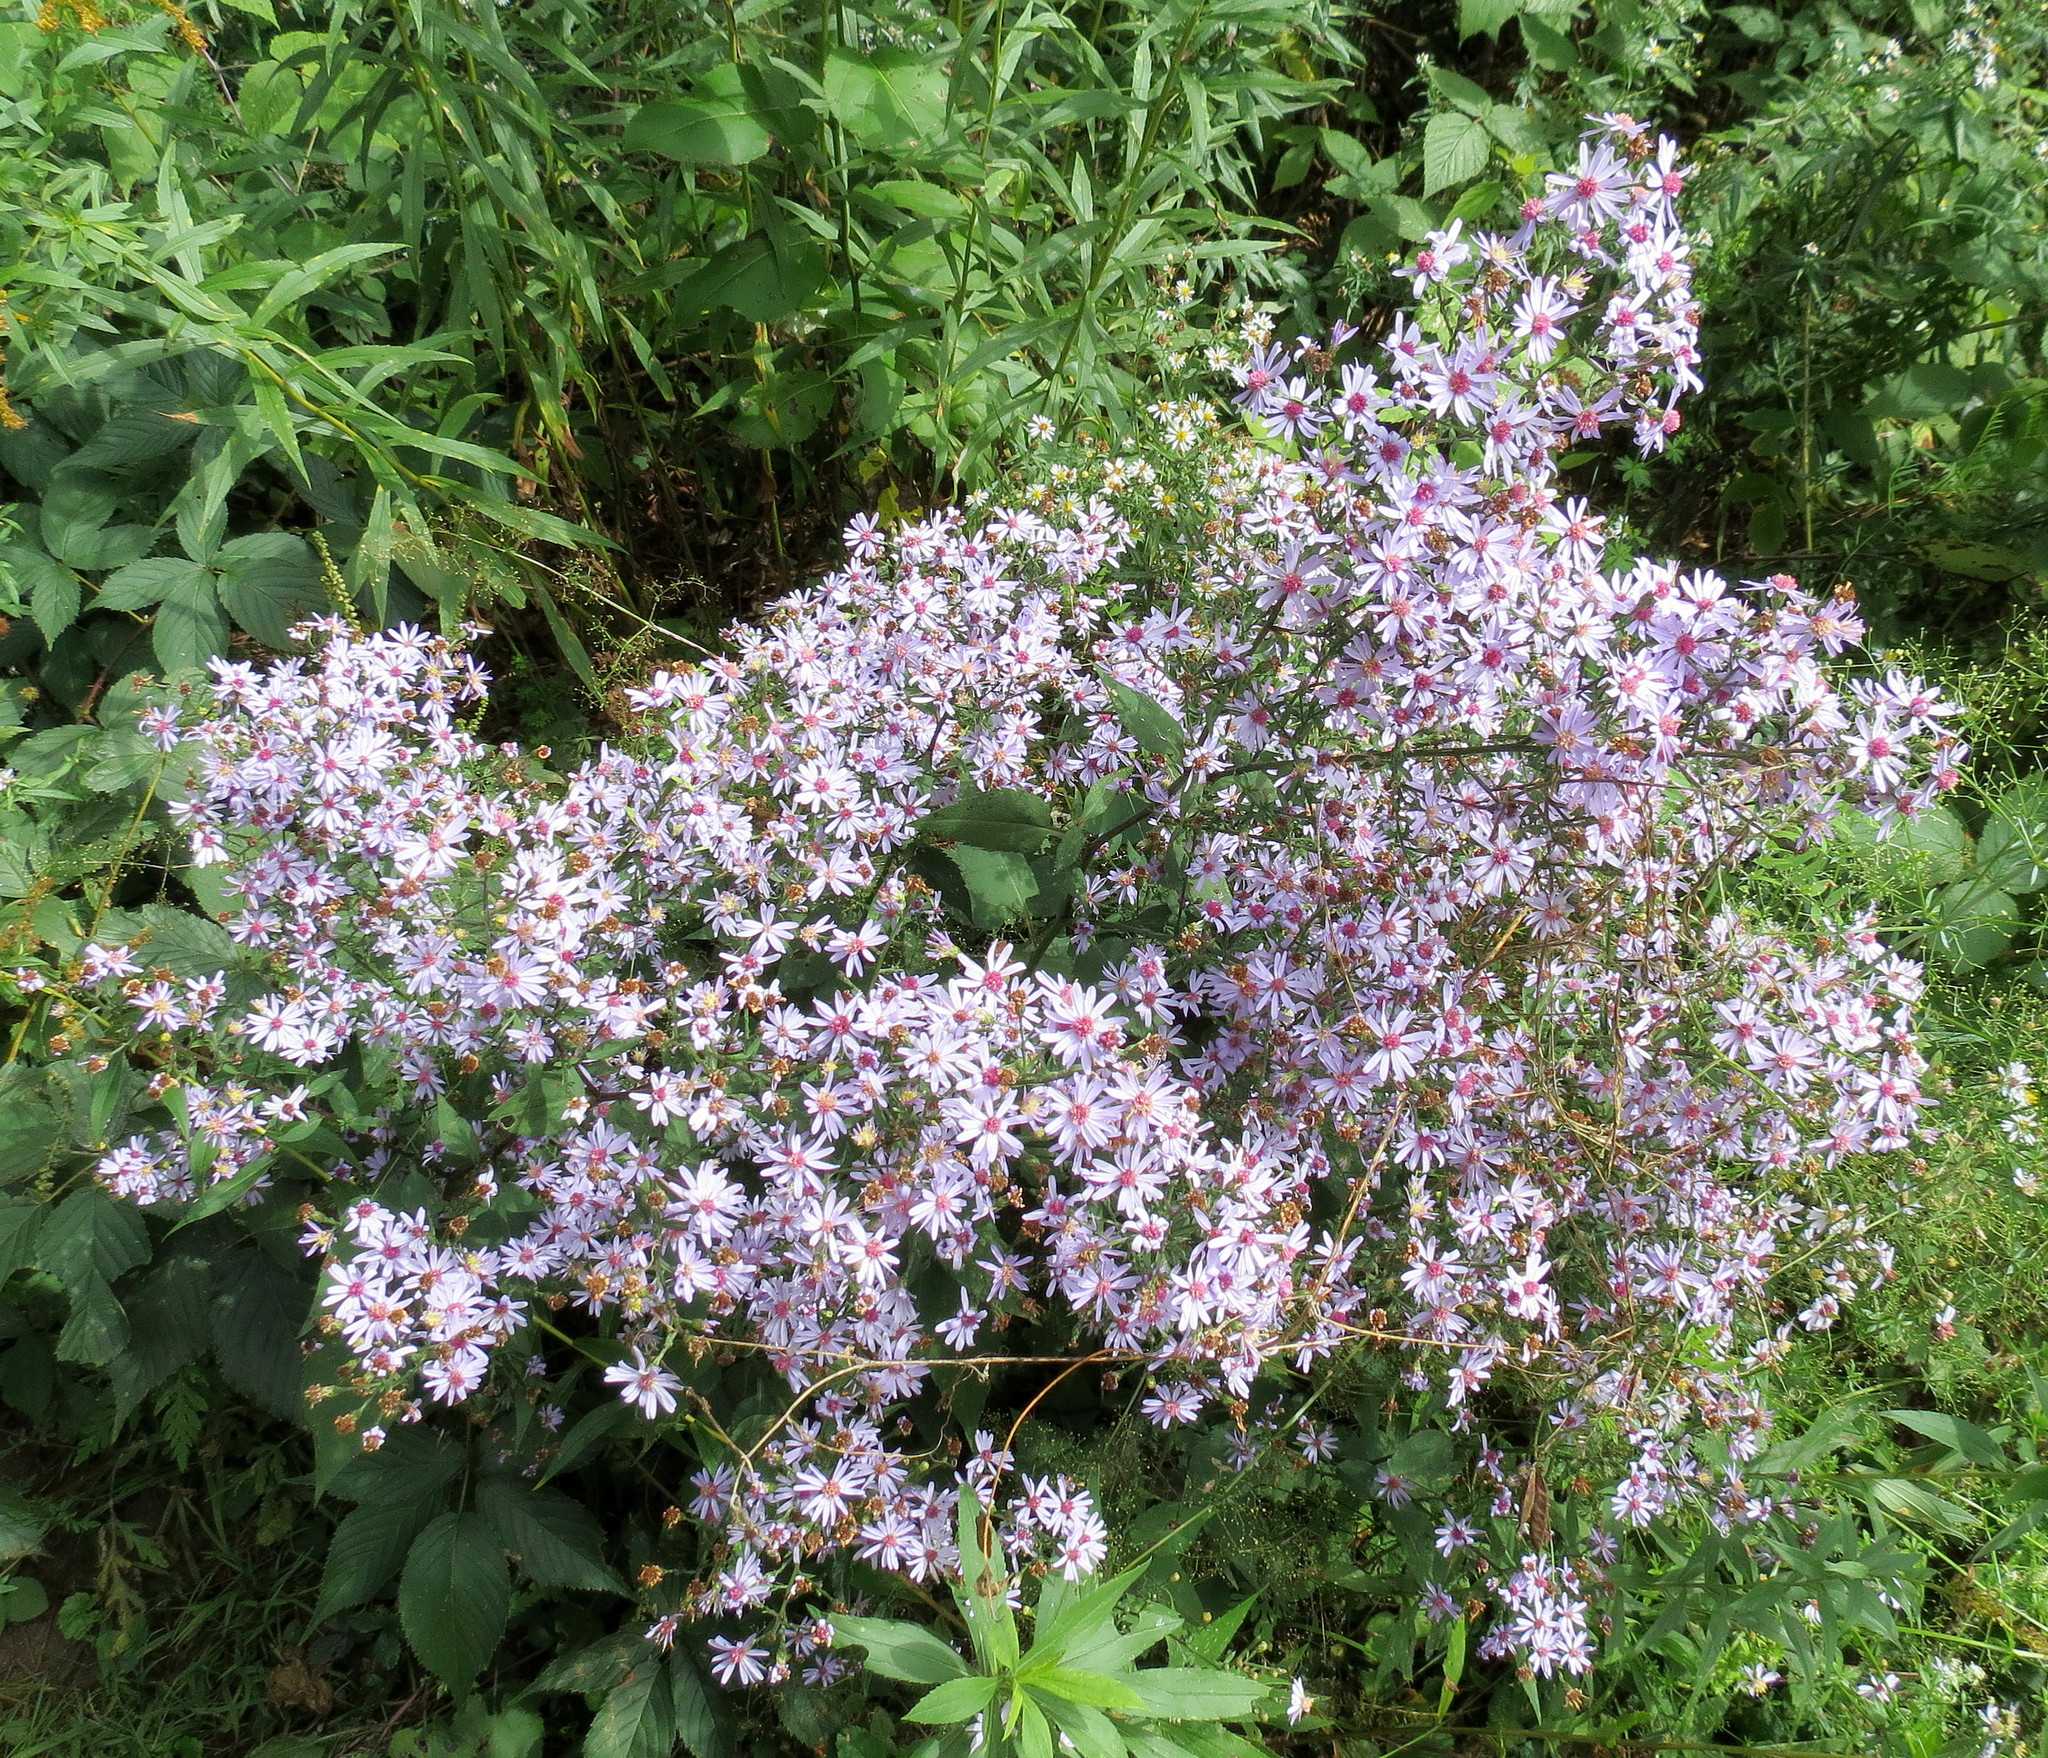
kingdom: Plantae
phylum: Tracheophyta
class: Magnoliopsida
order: Asterales
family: Asteraceae
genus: Symphyotrichum
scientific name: Symphyotrichum cordifolium
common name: Beeweed
